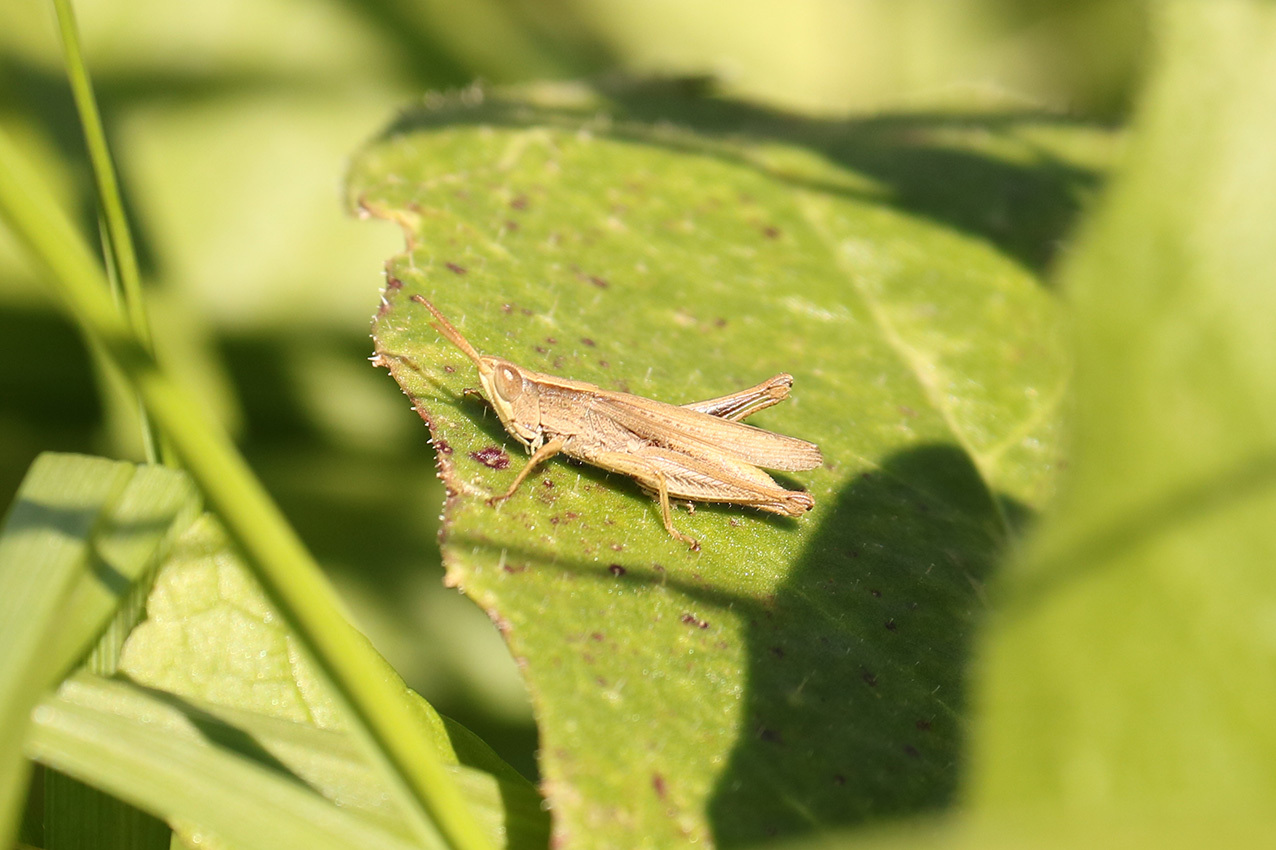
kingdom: Animalia
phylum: Arthropoda
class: Insecta
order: Orthoptera
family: Acrididae
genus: Laplatacris
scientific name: Laplatacris dispar
